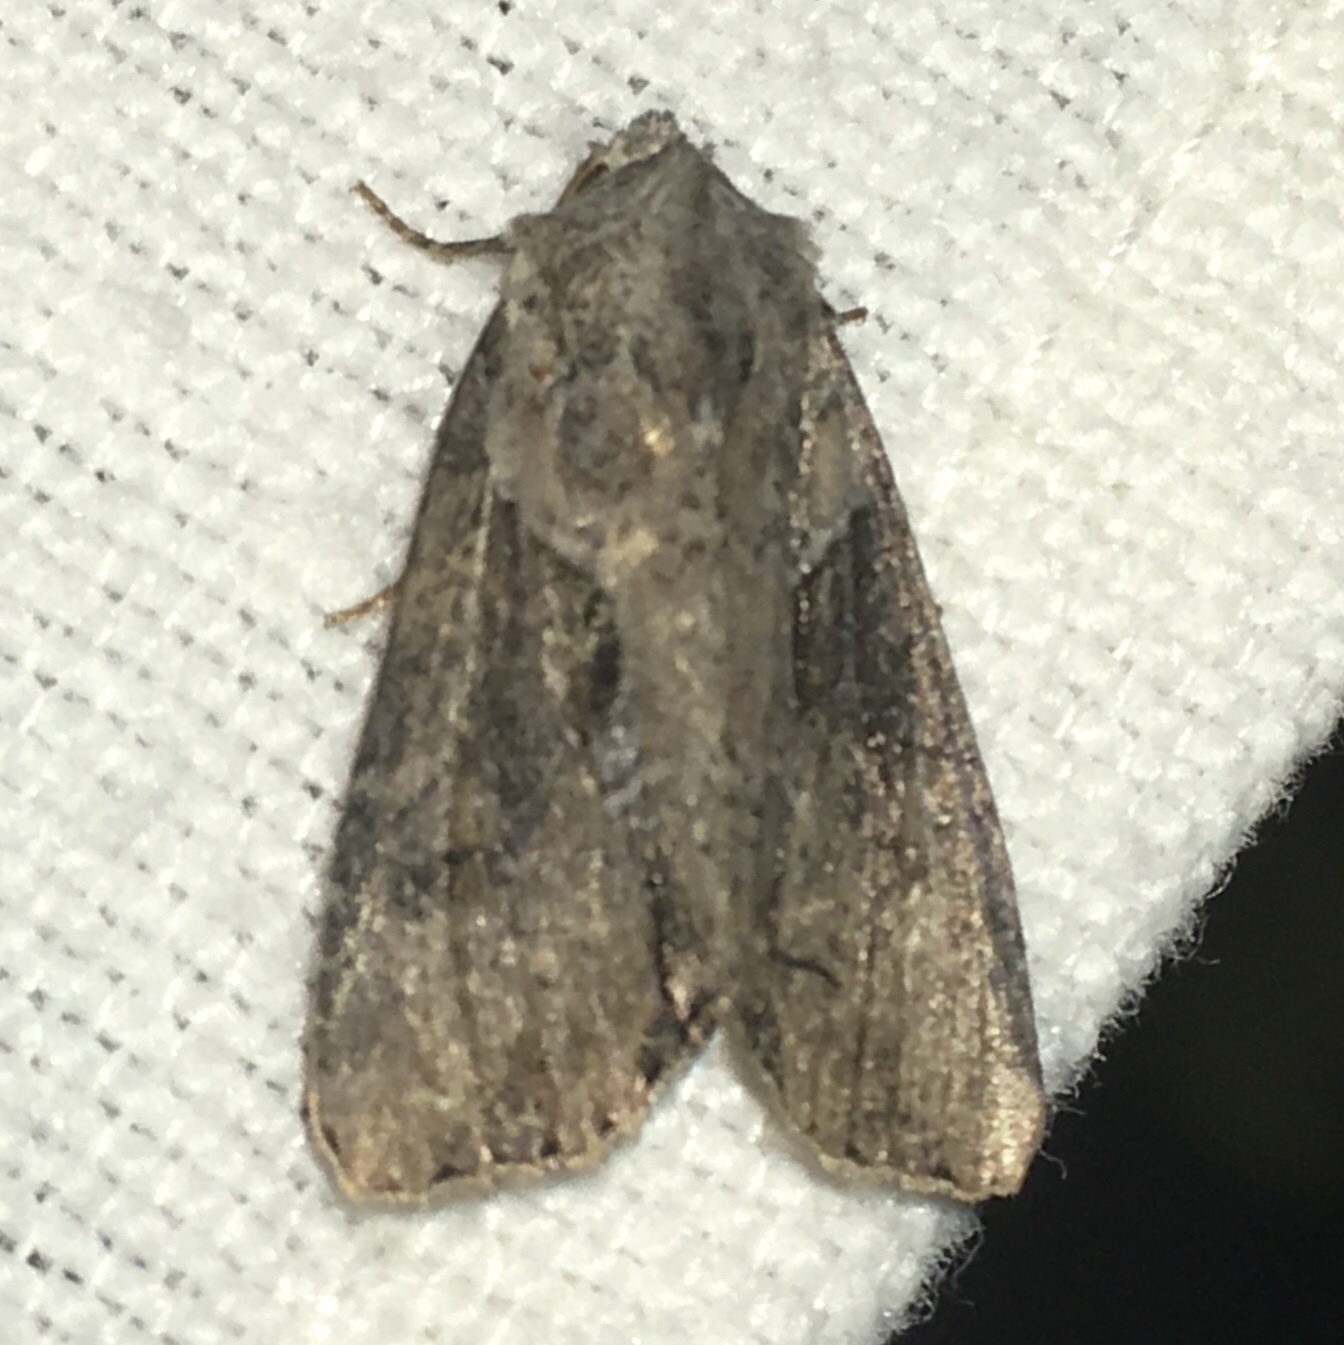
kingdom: Animalia
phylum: Arthropoda
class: Insecta
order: Lepidoptera
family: Noctuidae
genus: Lateroligia
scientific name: Lateroligia ophiogramma
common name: Double lobed
